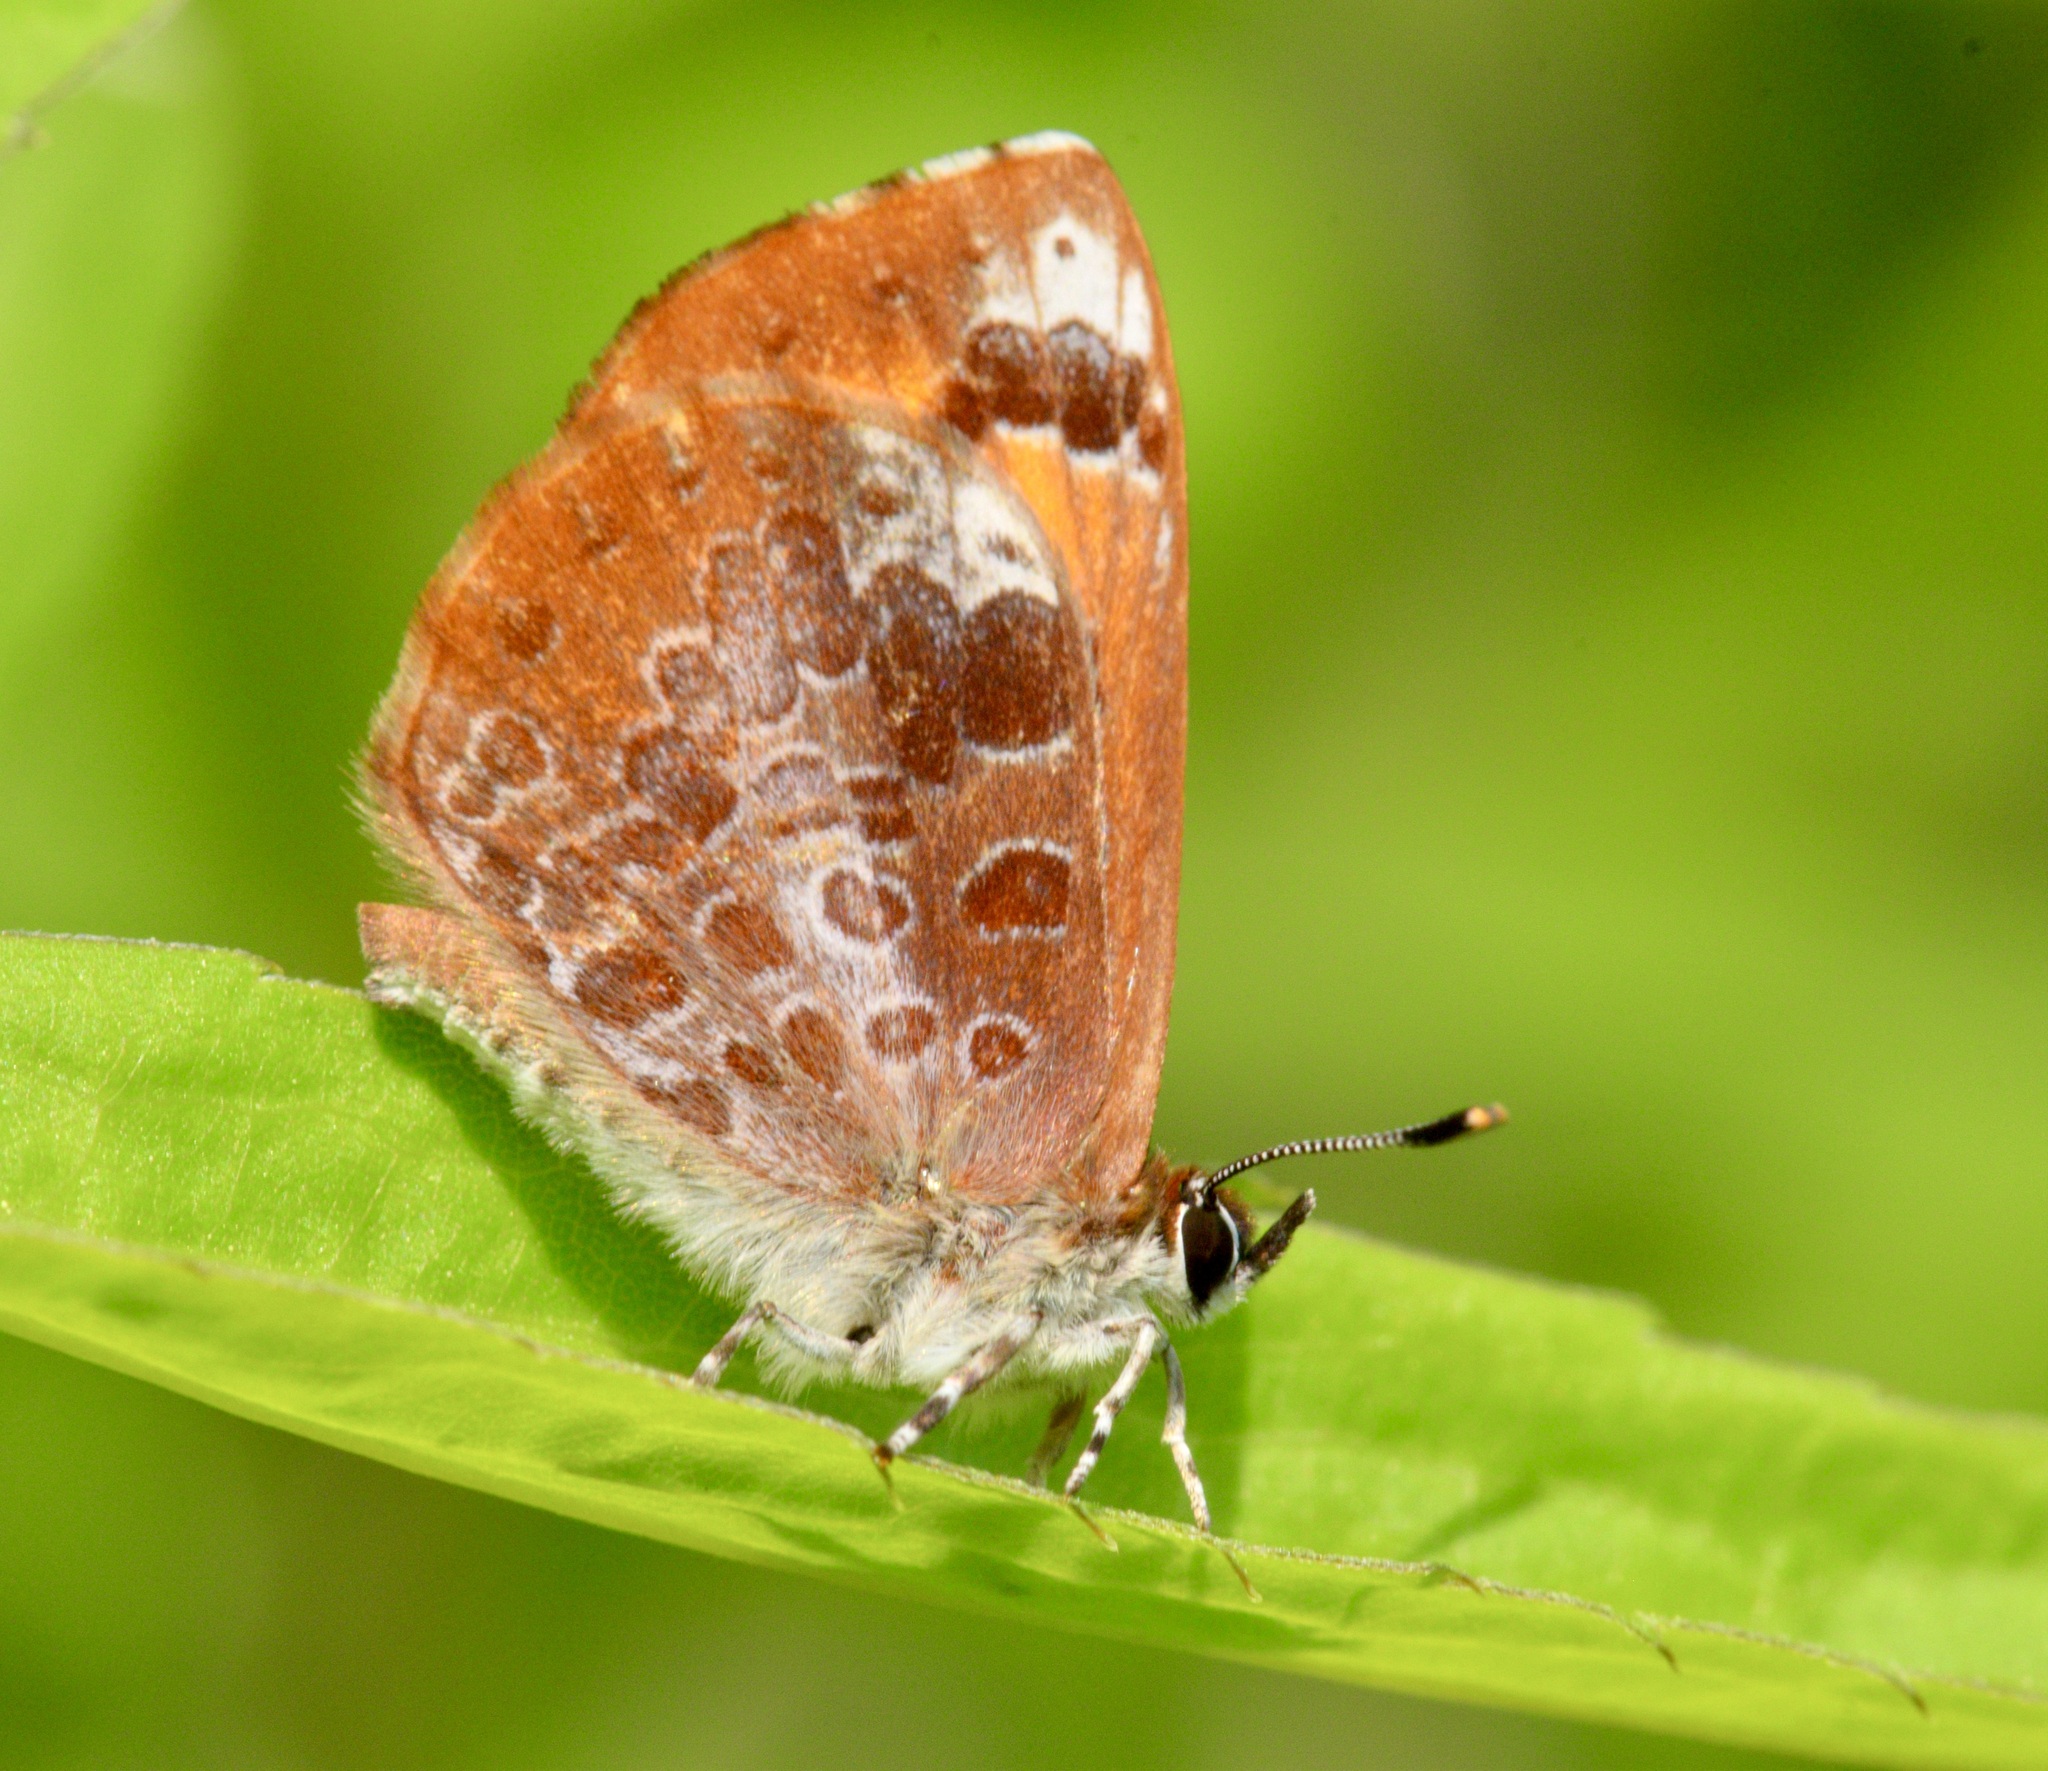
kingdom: Animalia
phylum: Arthropoda
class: Insecta
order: Lepidoptera
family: Lycaenidae
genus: Feniseca
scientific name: Feniseca tarquinius
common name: Harvester
